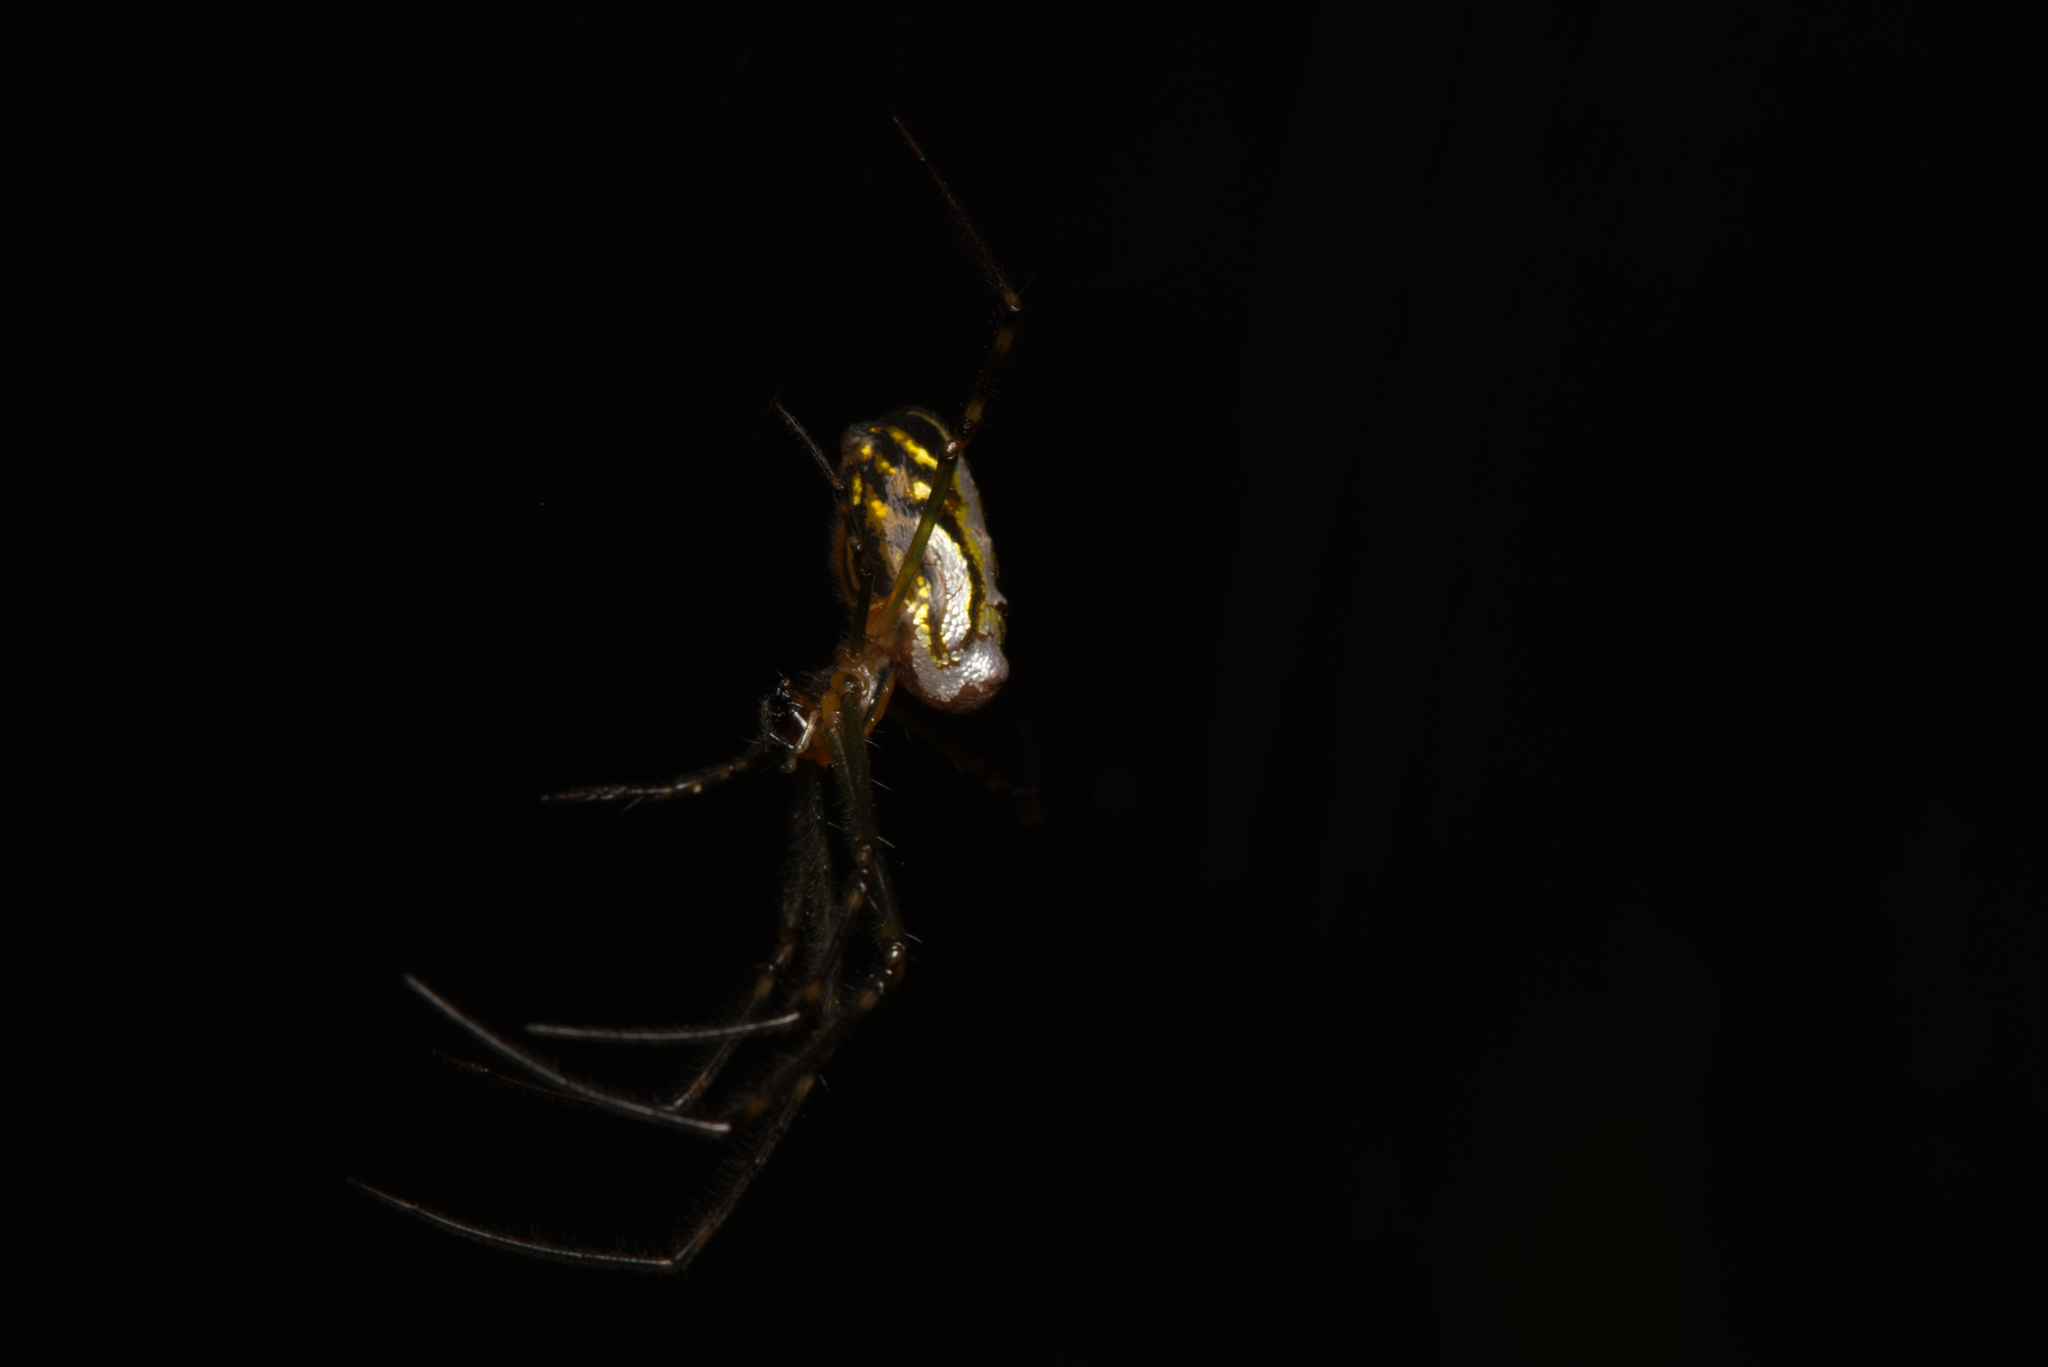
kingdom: Animalia
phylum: Arthropoda
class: Arachnida
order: Araneae
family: Tetragnathidae
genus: Leucauge
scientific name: Leucauge dromedaria
